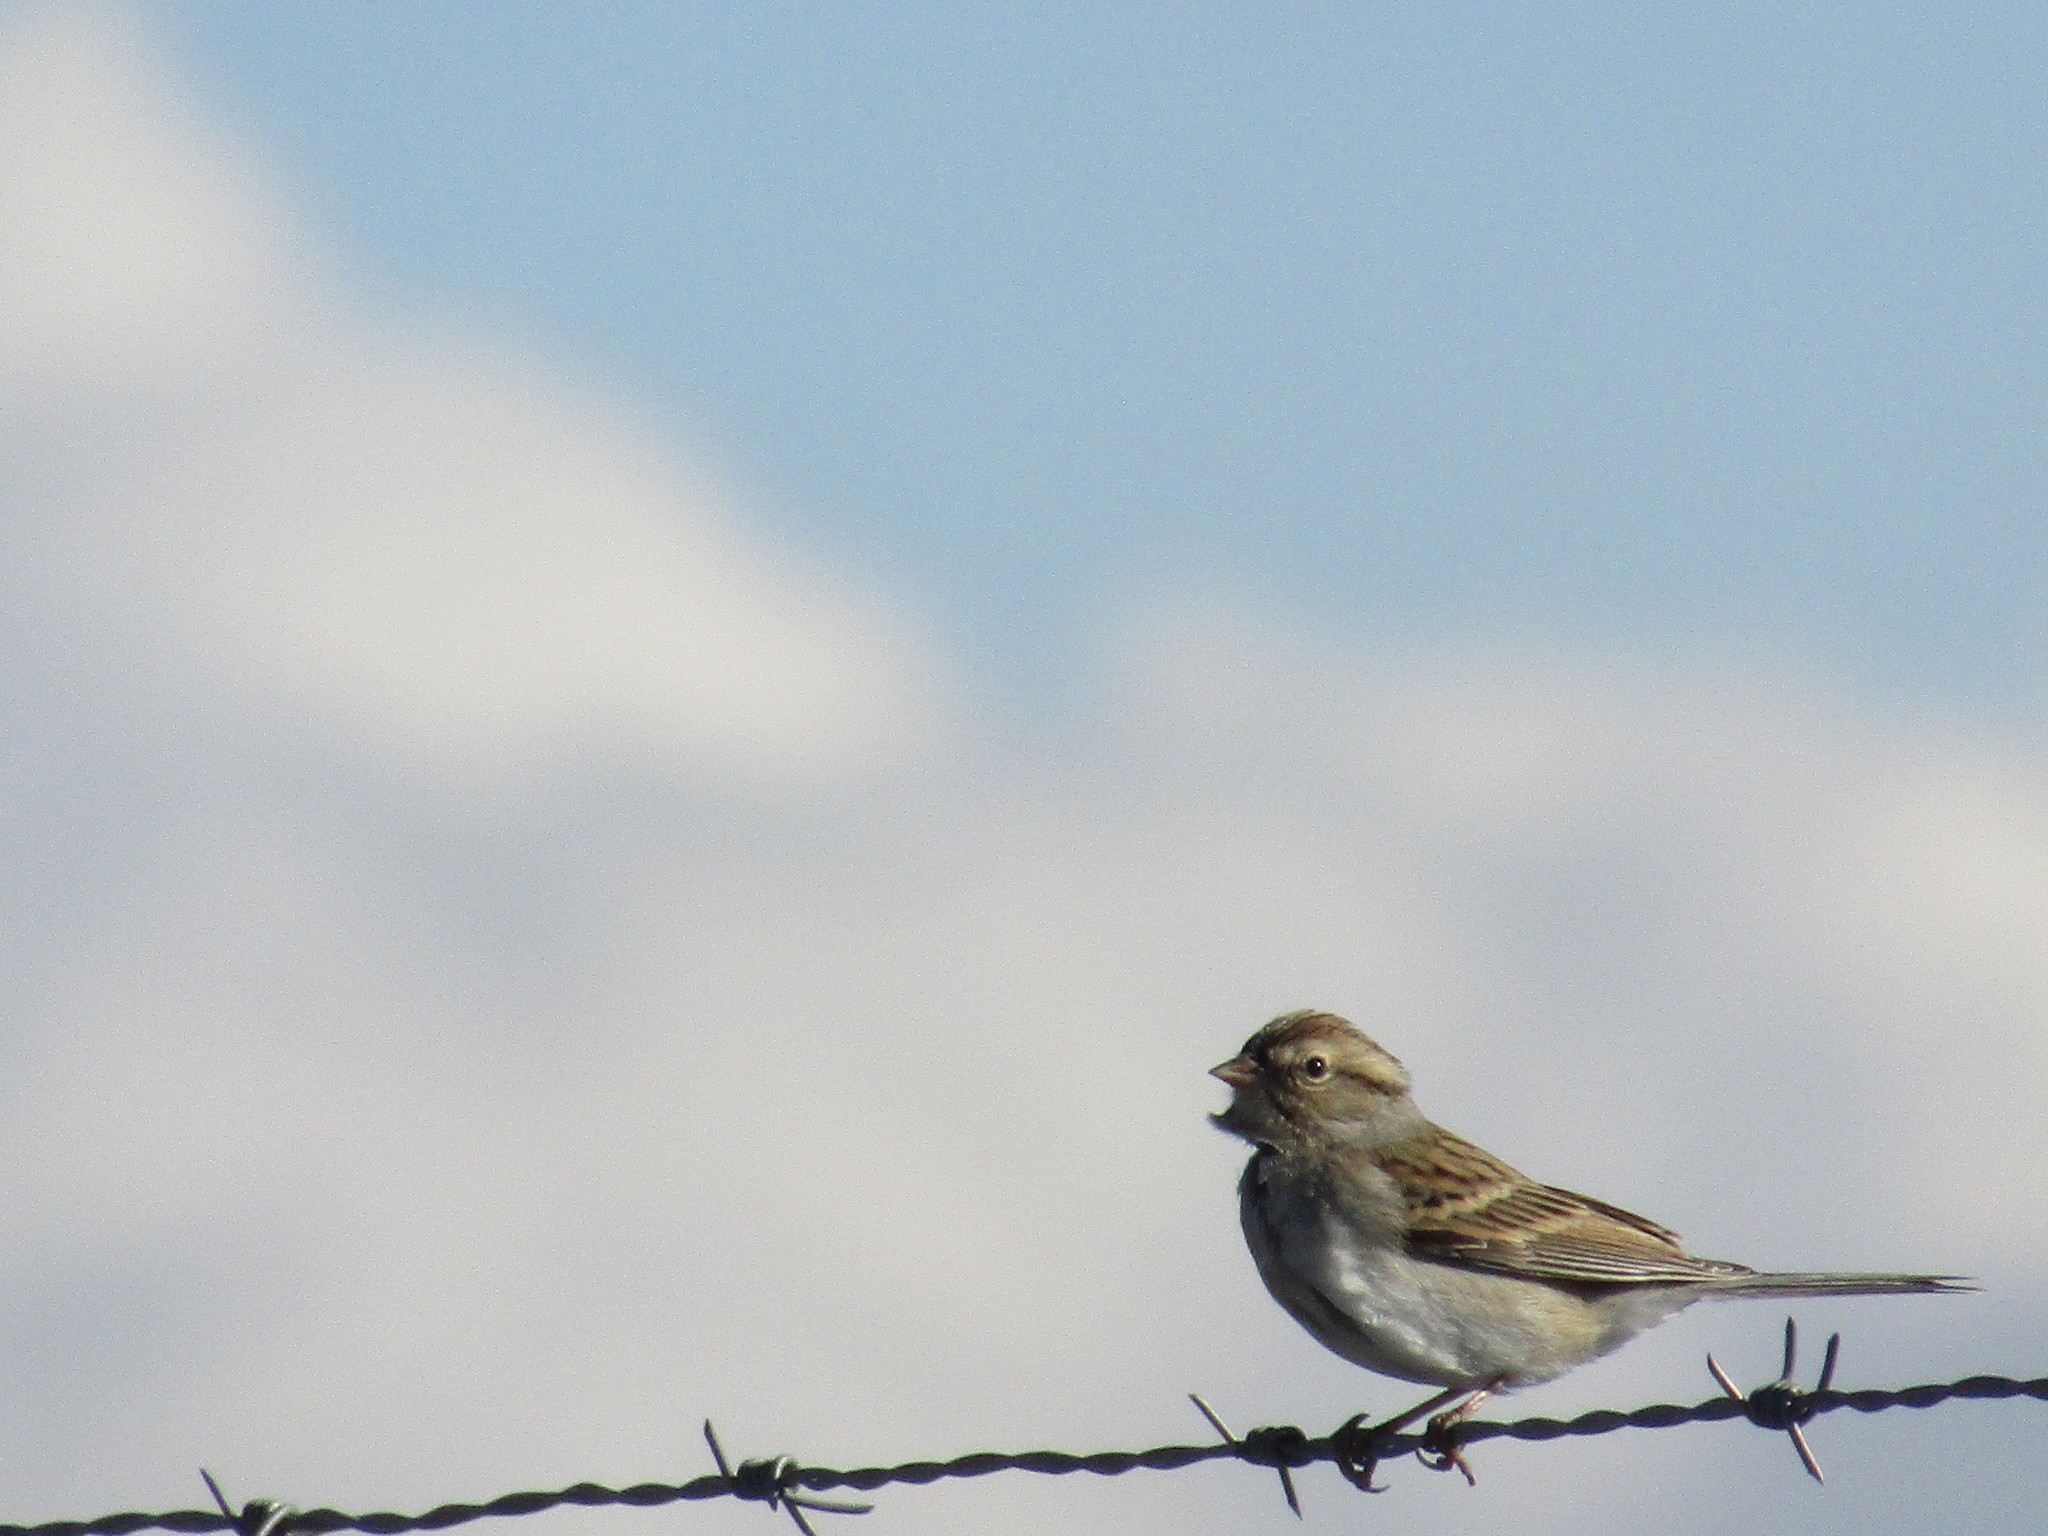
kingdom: Animalia
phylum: Chordata
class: Aves
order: Passeriformes
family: Passerellidae
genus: Spizella
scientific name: Spizella passerina
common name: Chipping sparrow
